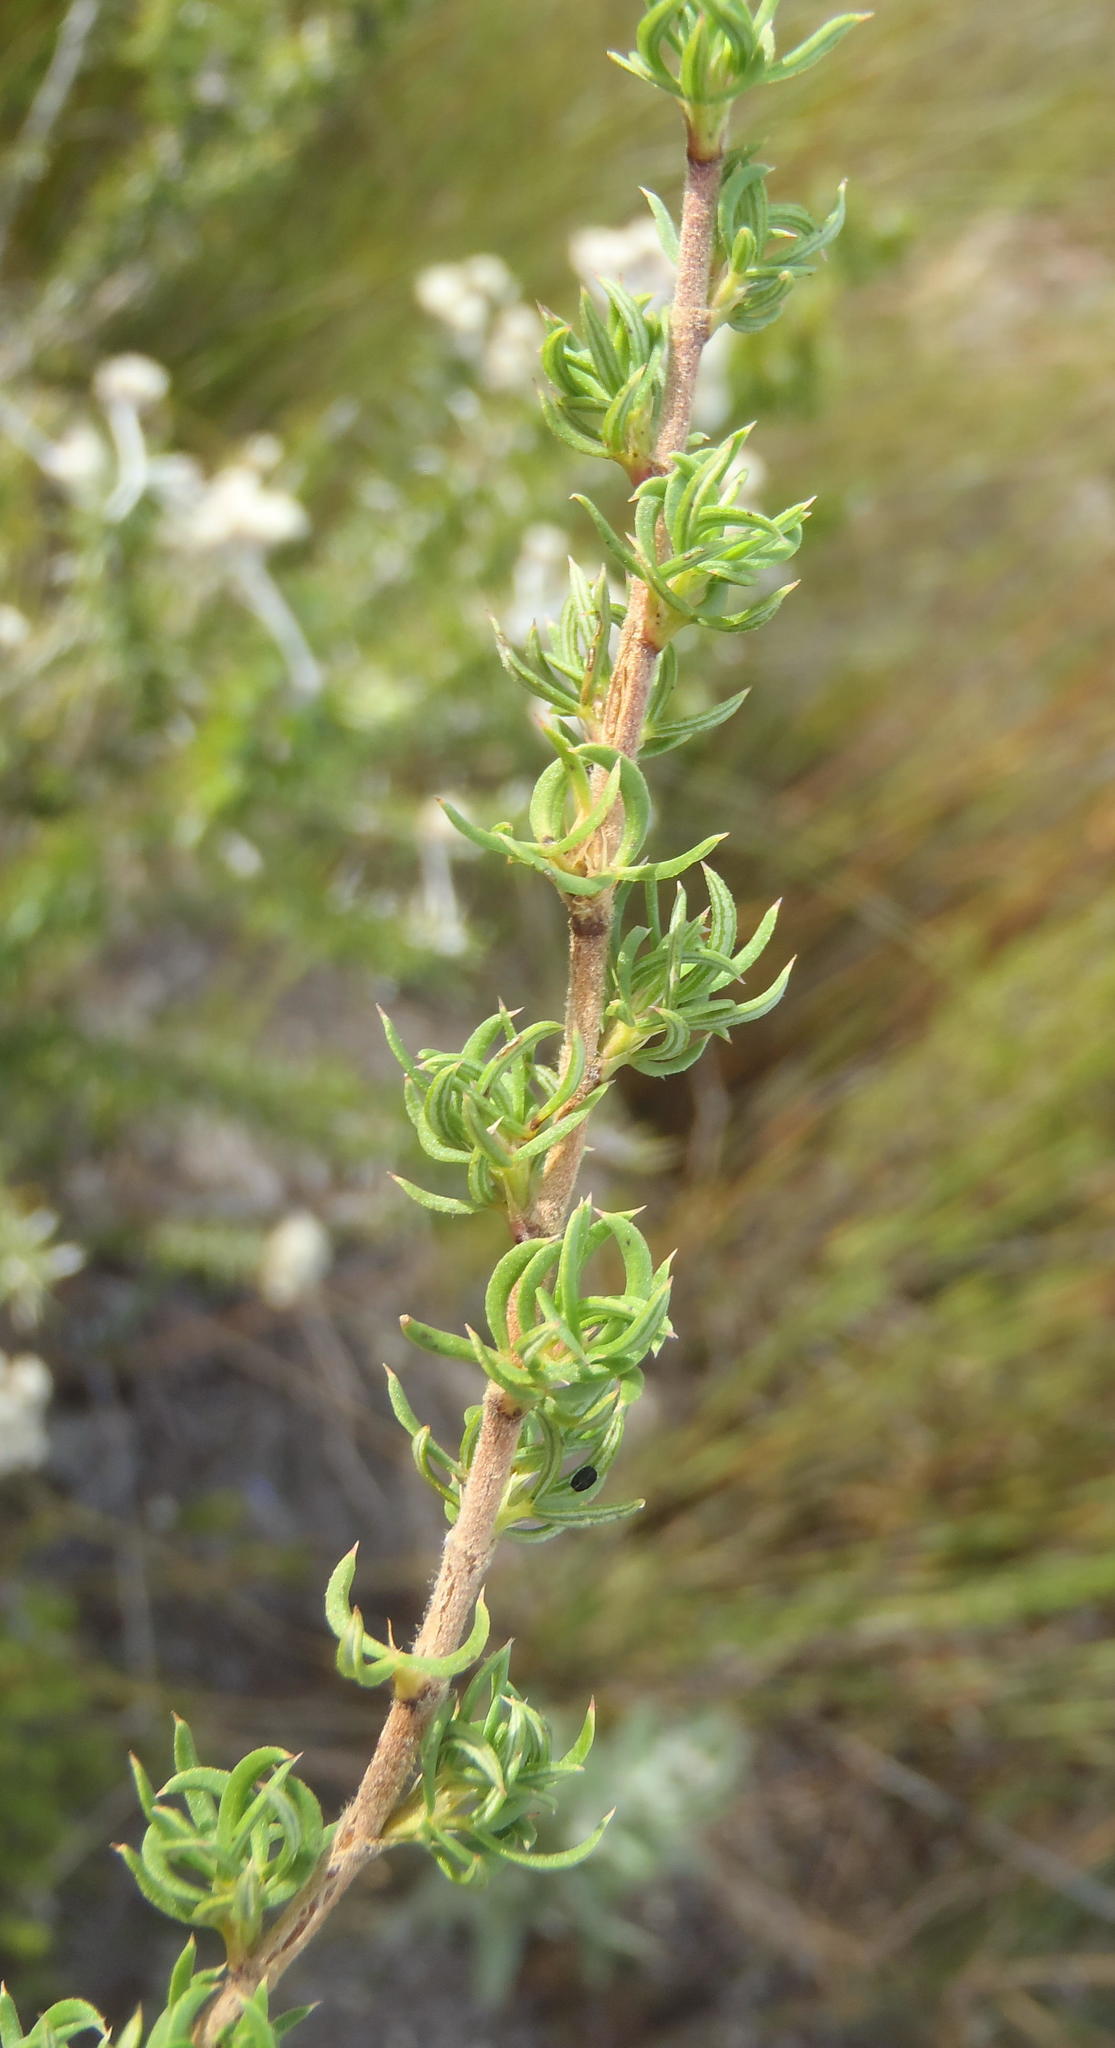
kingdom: Plantae
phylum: Tracheophyta
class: Magnoliopsida
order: Rosales
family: Rosaceae
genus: Cliffortia
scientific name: Cliffortia arcuata
